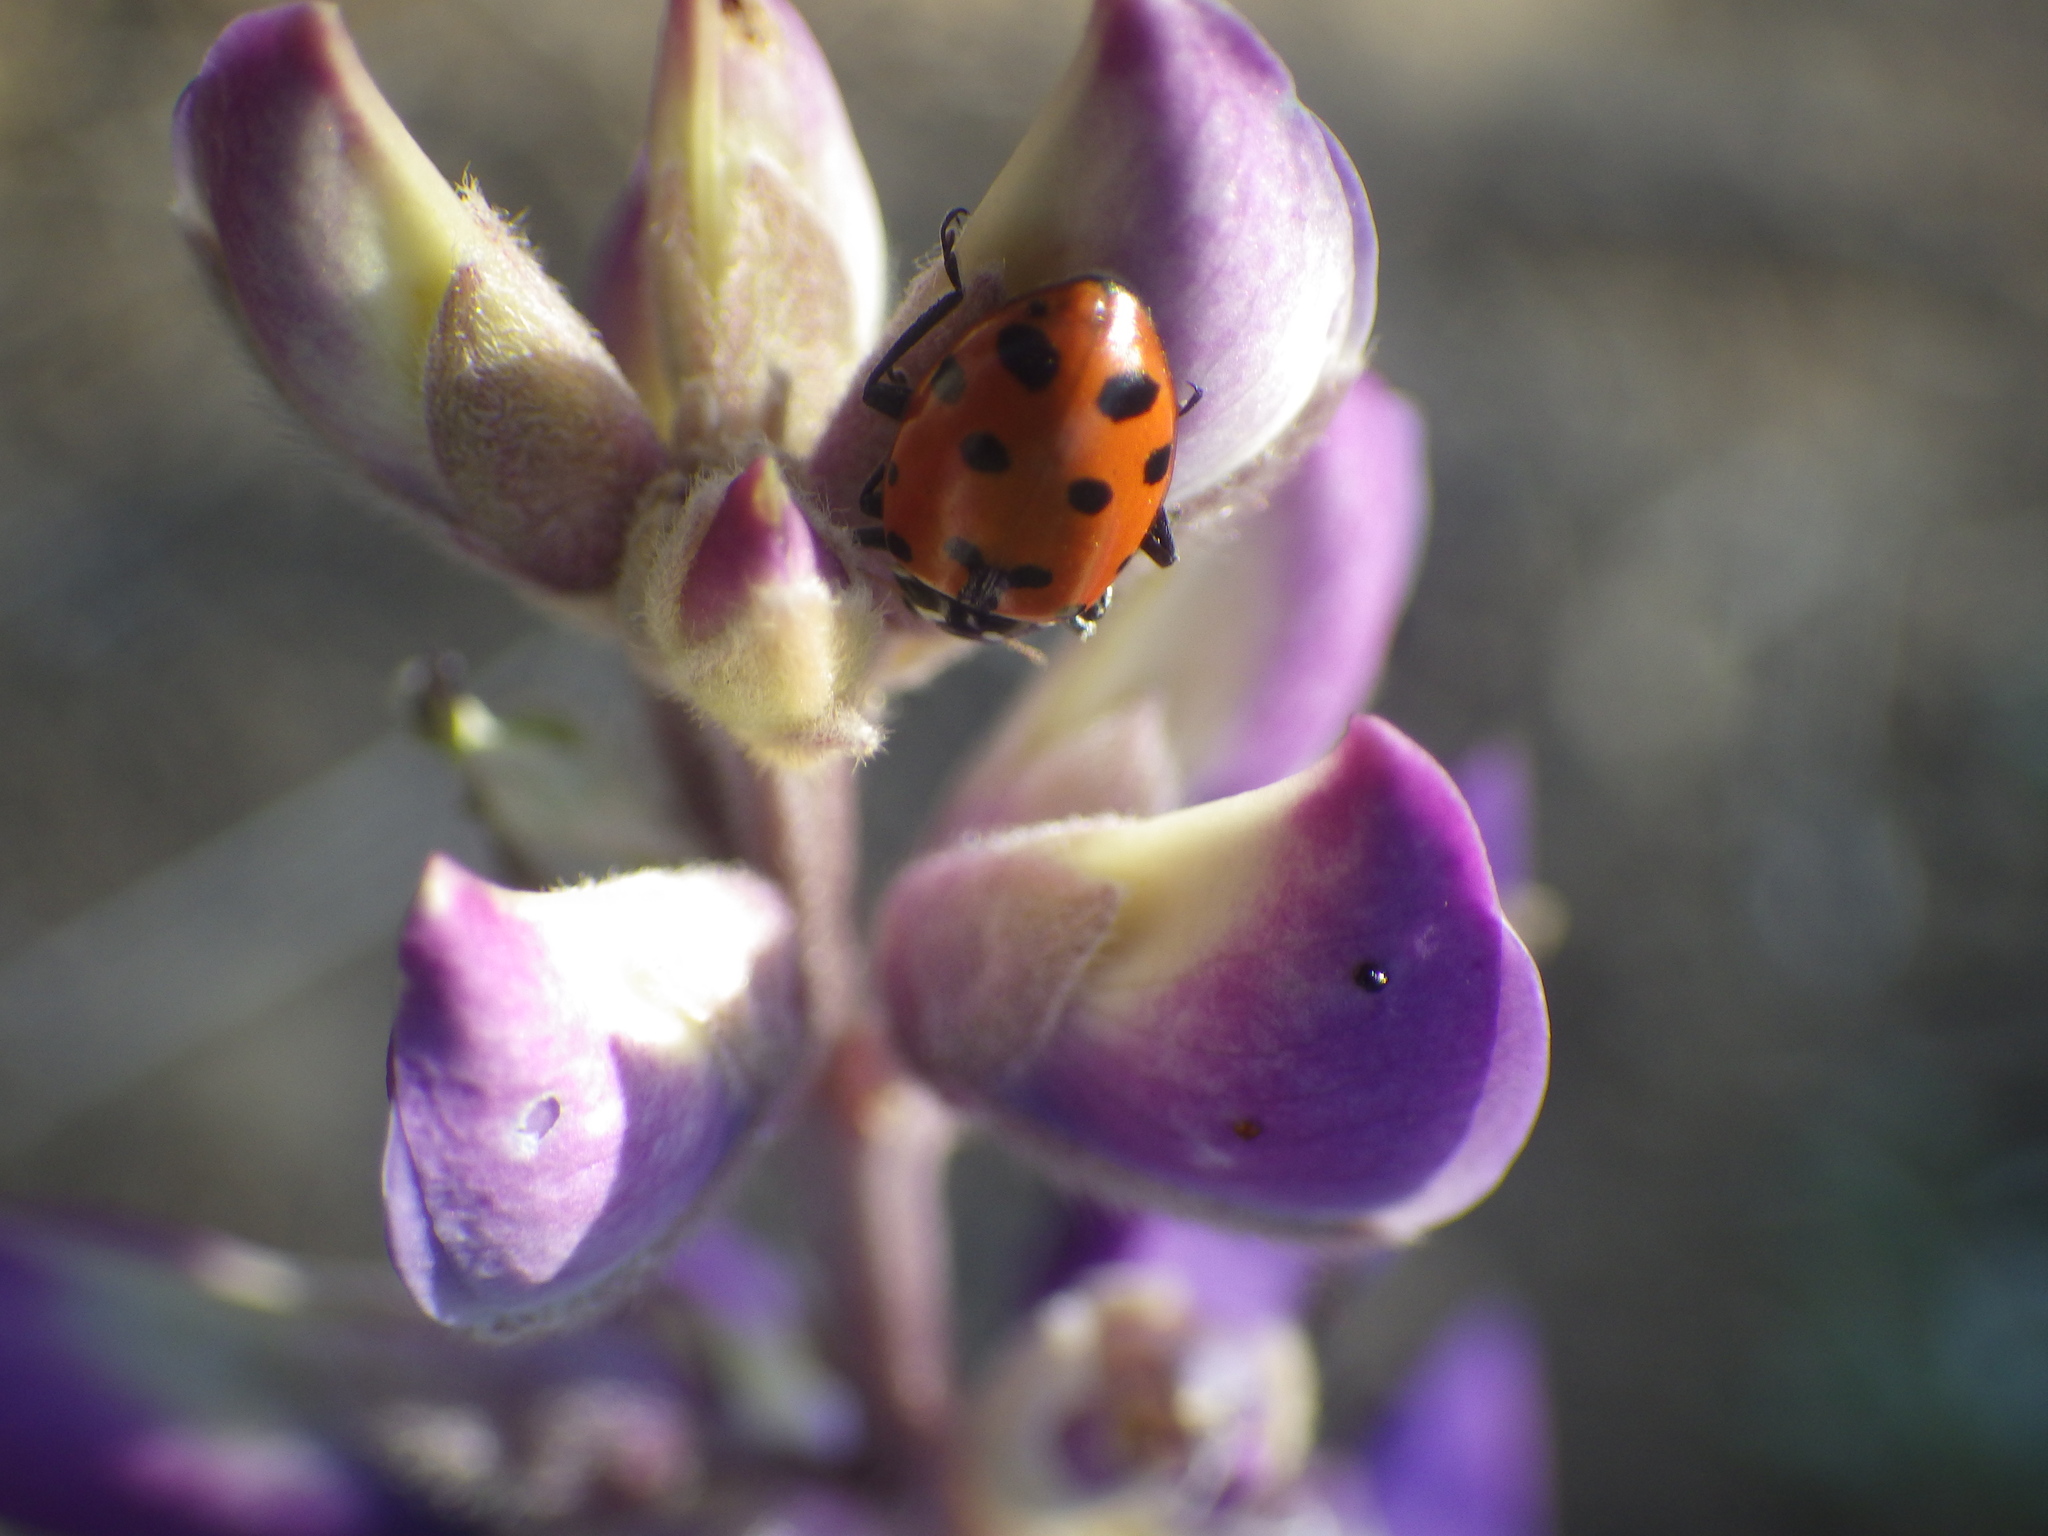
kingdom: Animalia
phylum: Arthropoda
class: Insecta
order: Coleoptera
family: Coccinellidae
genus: Hippodamia
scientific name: Hippodamia convergens
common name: Convergent lady beetle
